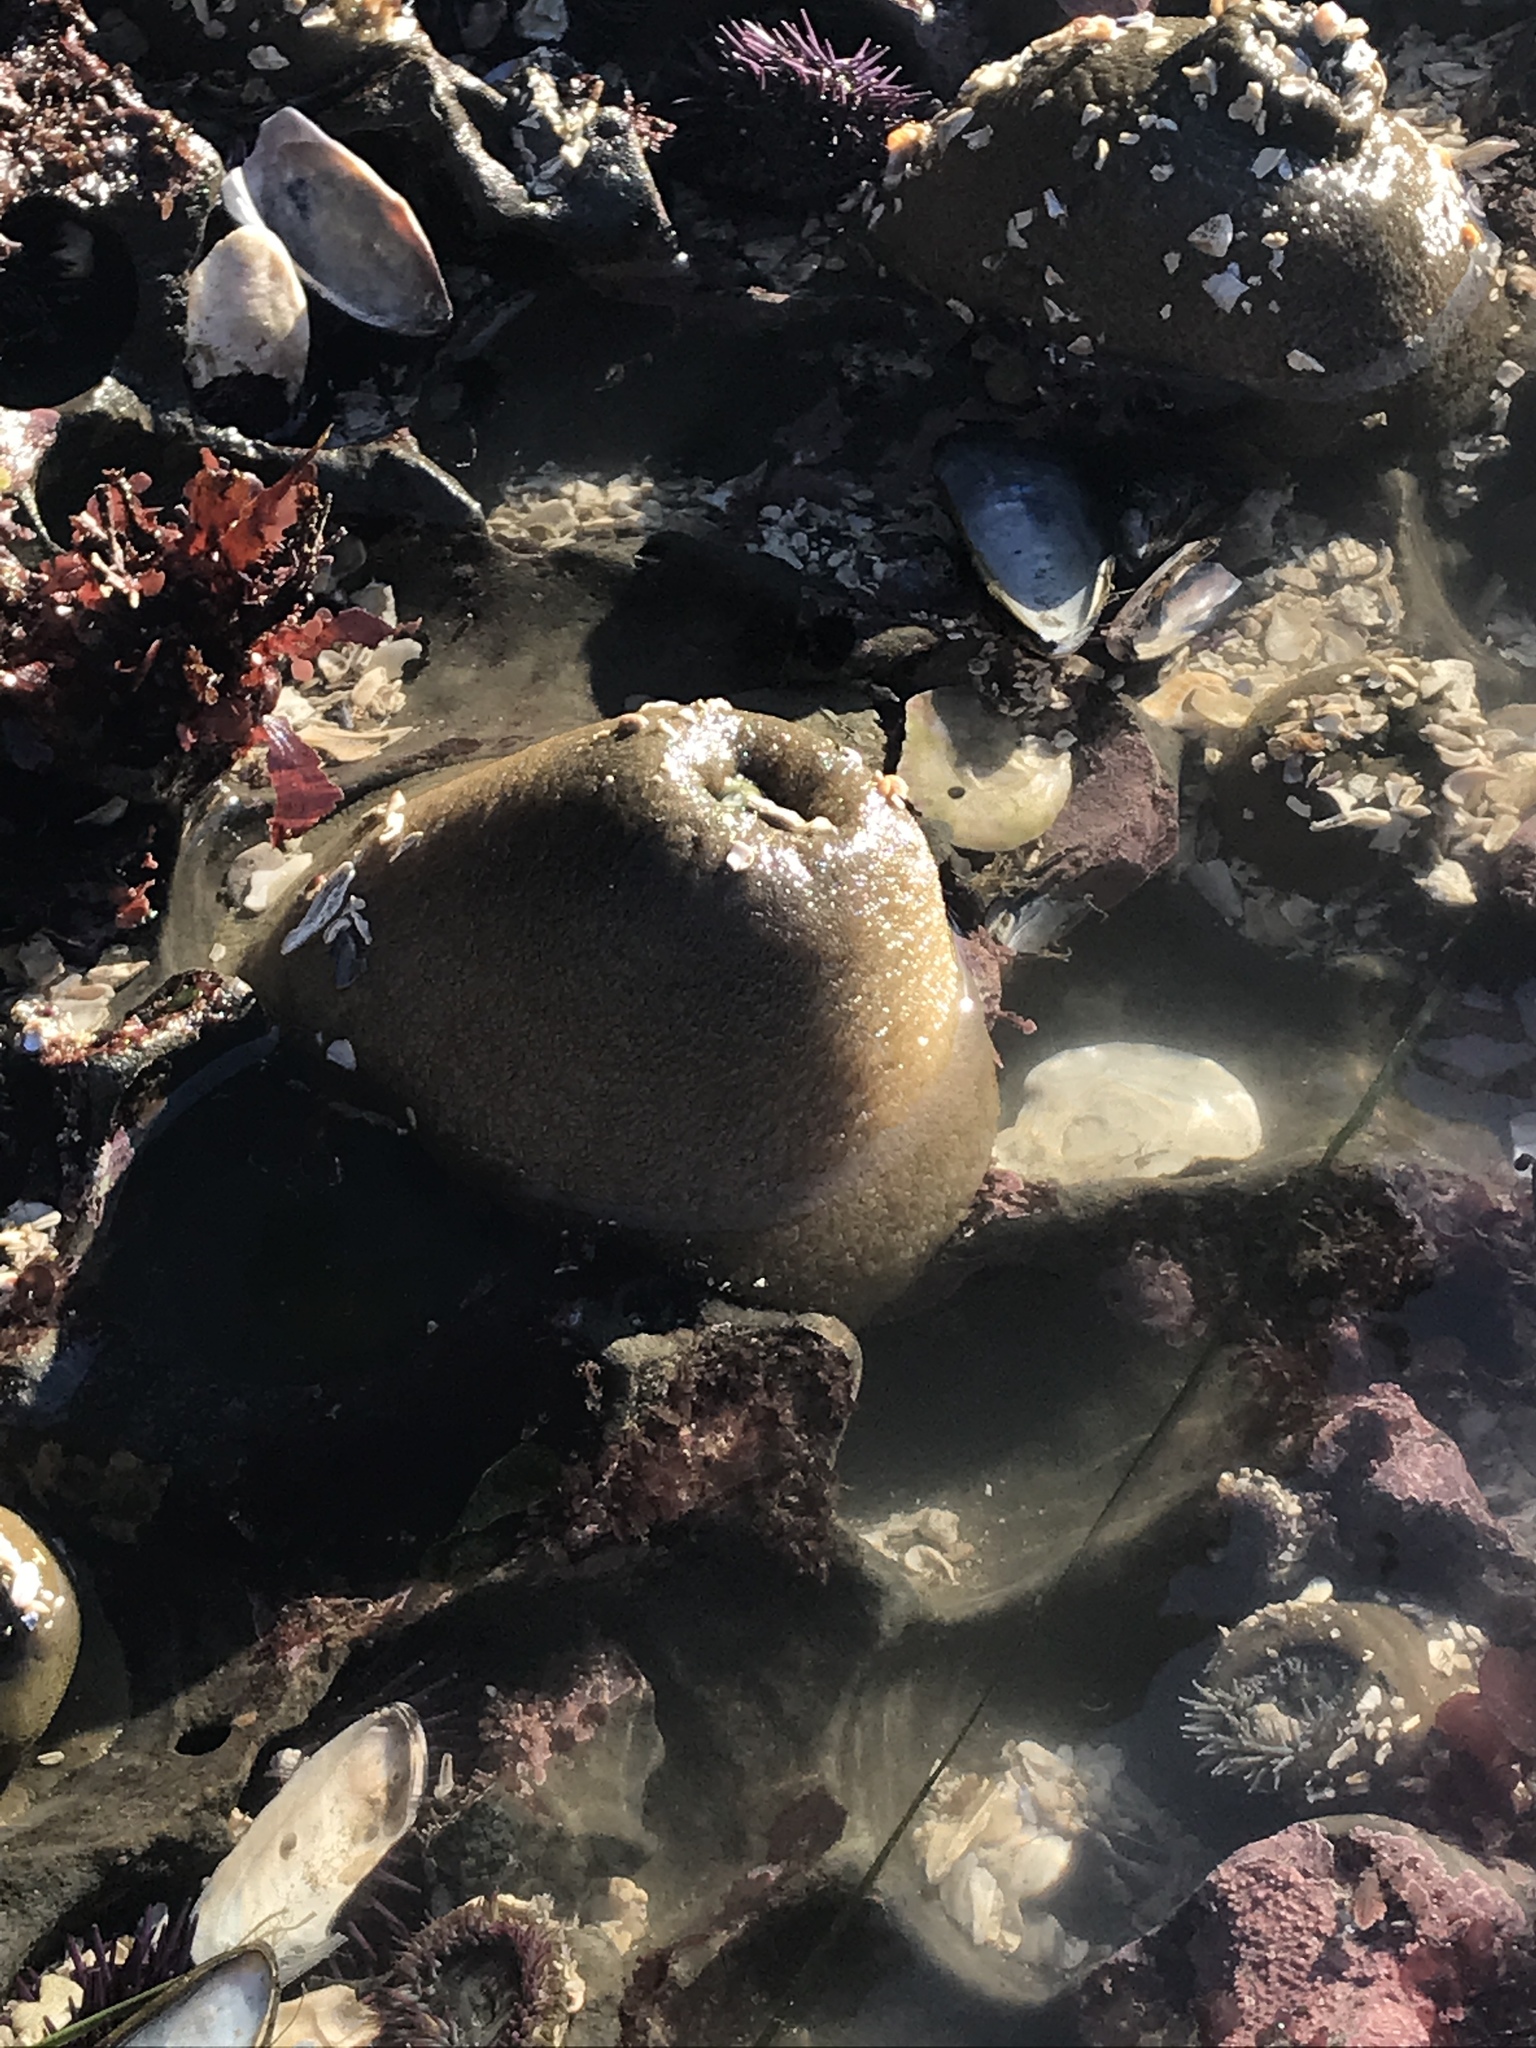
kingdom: Animalia
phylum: Cnidaria
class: Anthozoa
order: Actiniaria
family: Actiniidae
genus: Anthopleura
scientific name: Anthopleura xanthogrammica
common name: Giant green anemone
